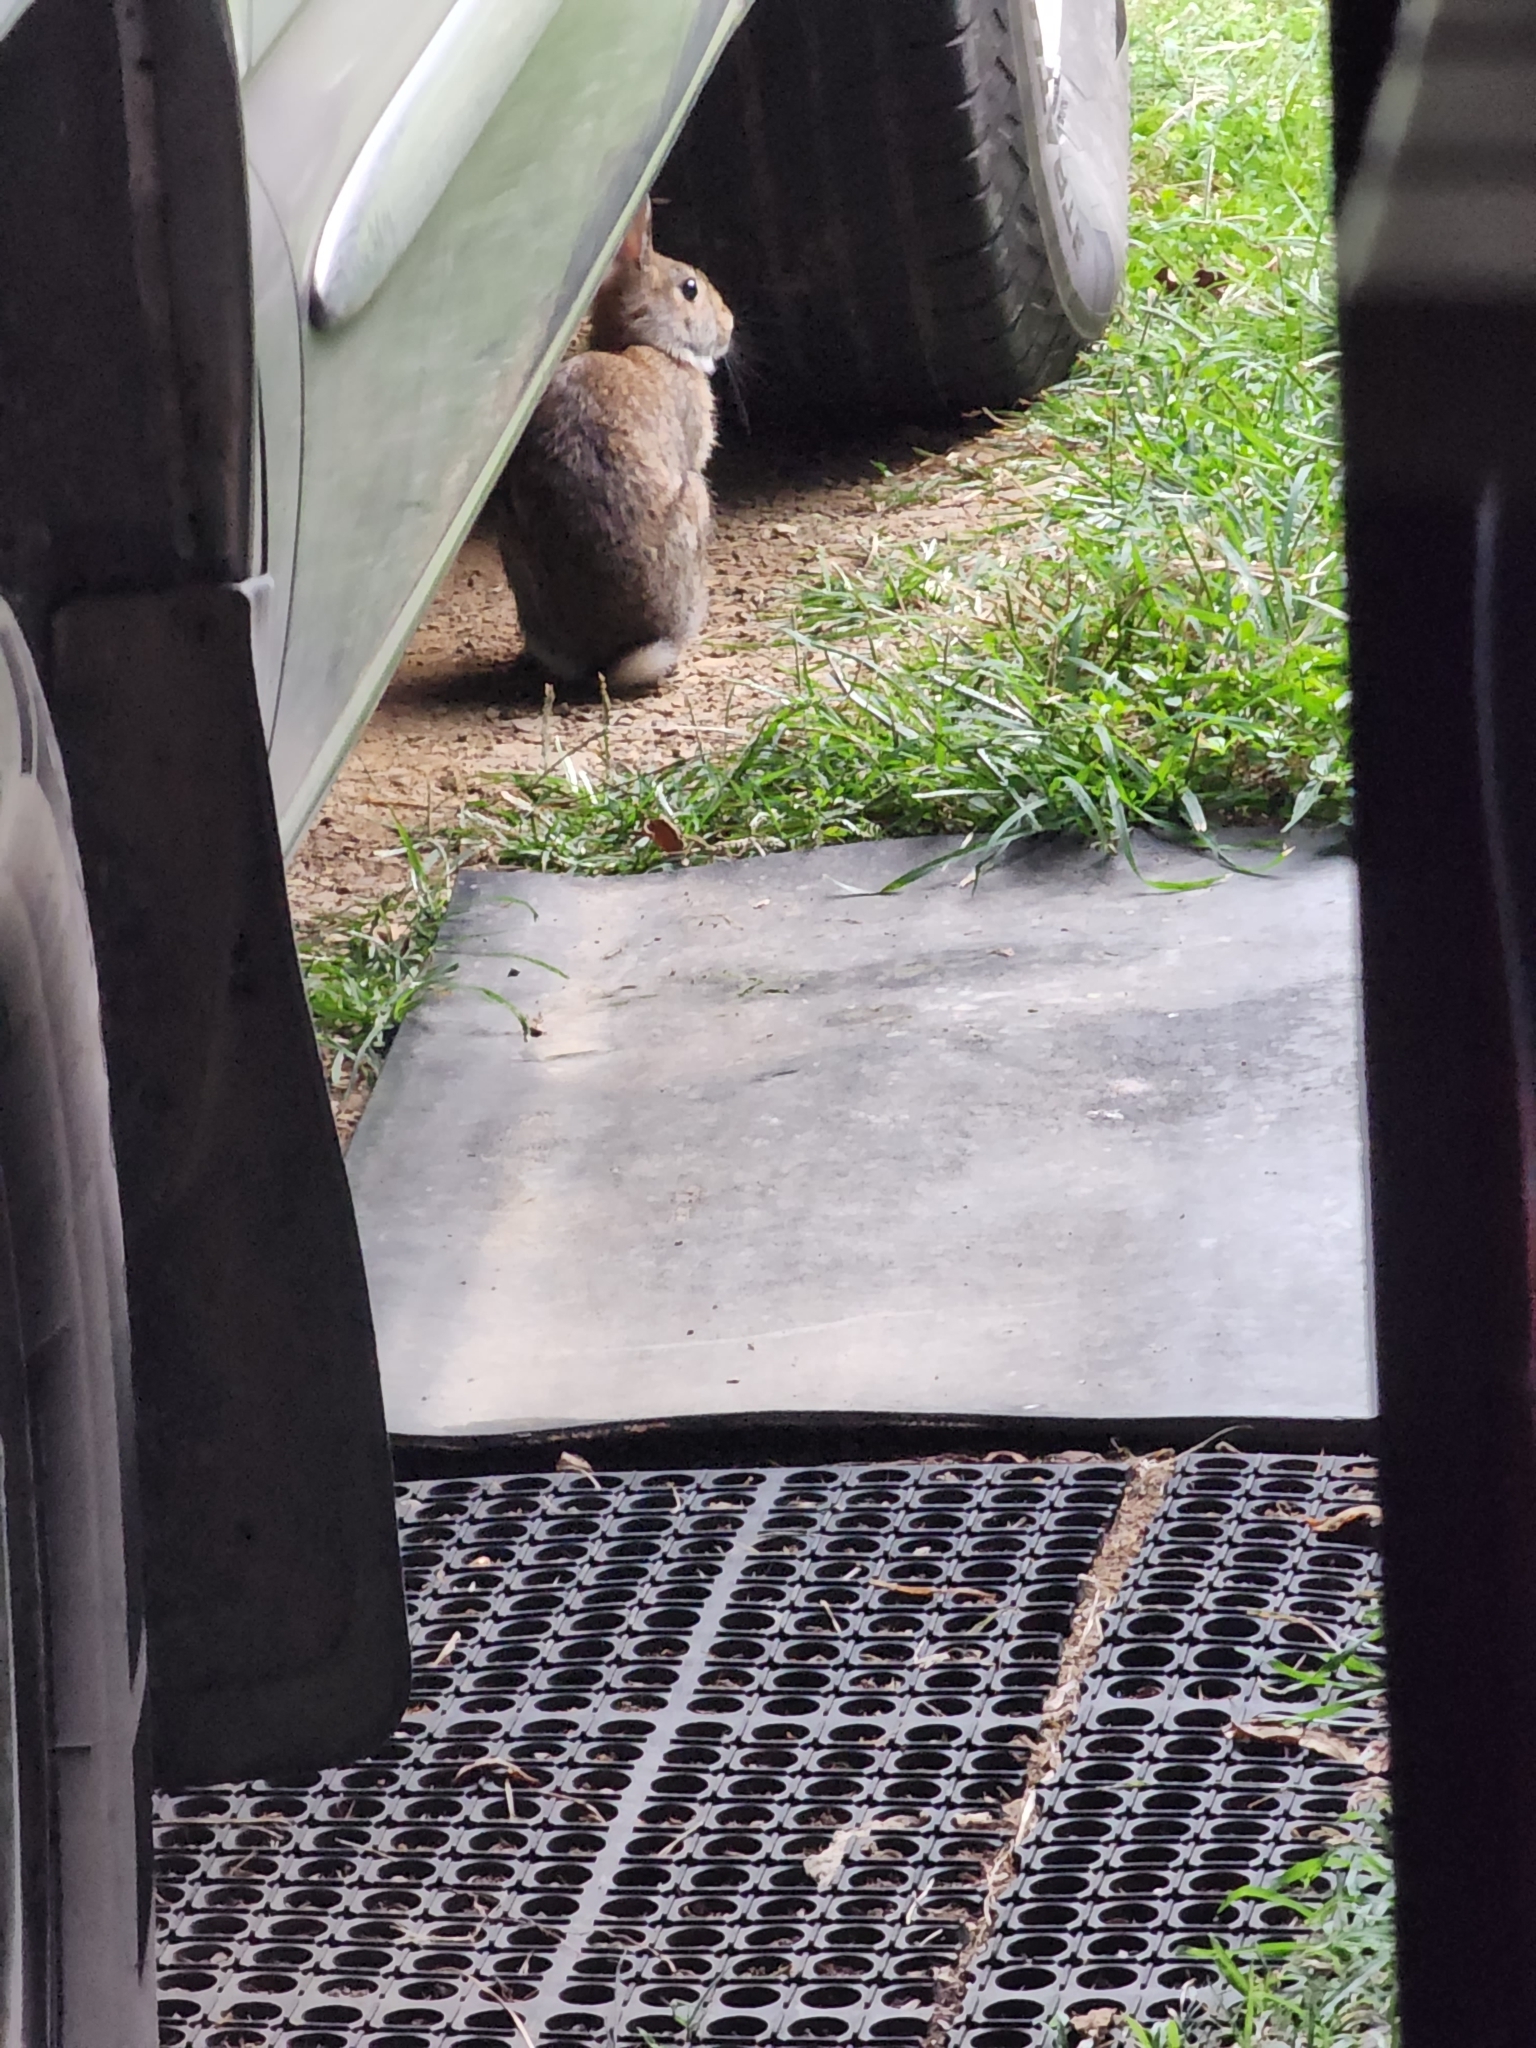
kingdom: Animalia
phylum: Chordata
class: Mammalia
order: Lagomorpha
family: Leporidae
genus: Sylvilagus
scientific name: Sylvilagus floridanus
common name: Eastern cottontail
